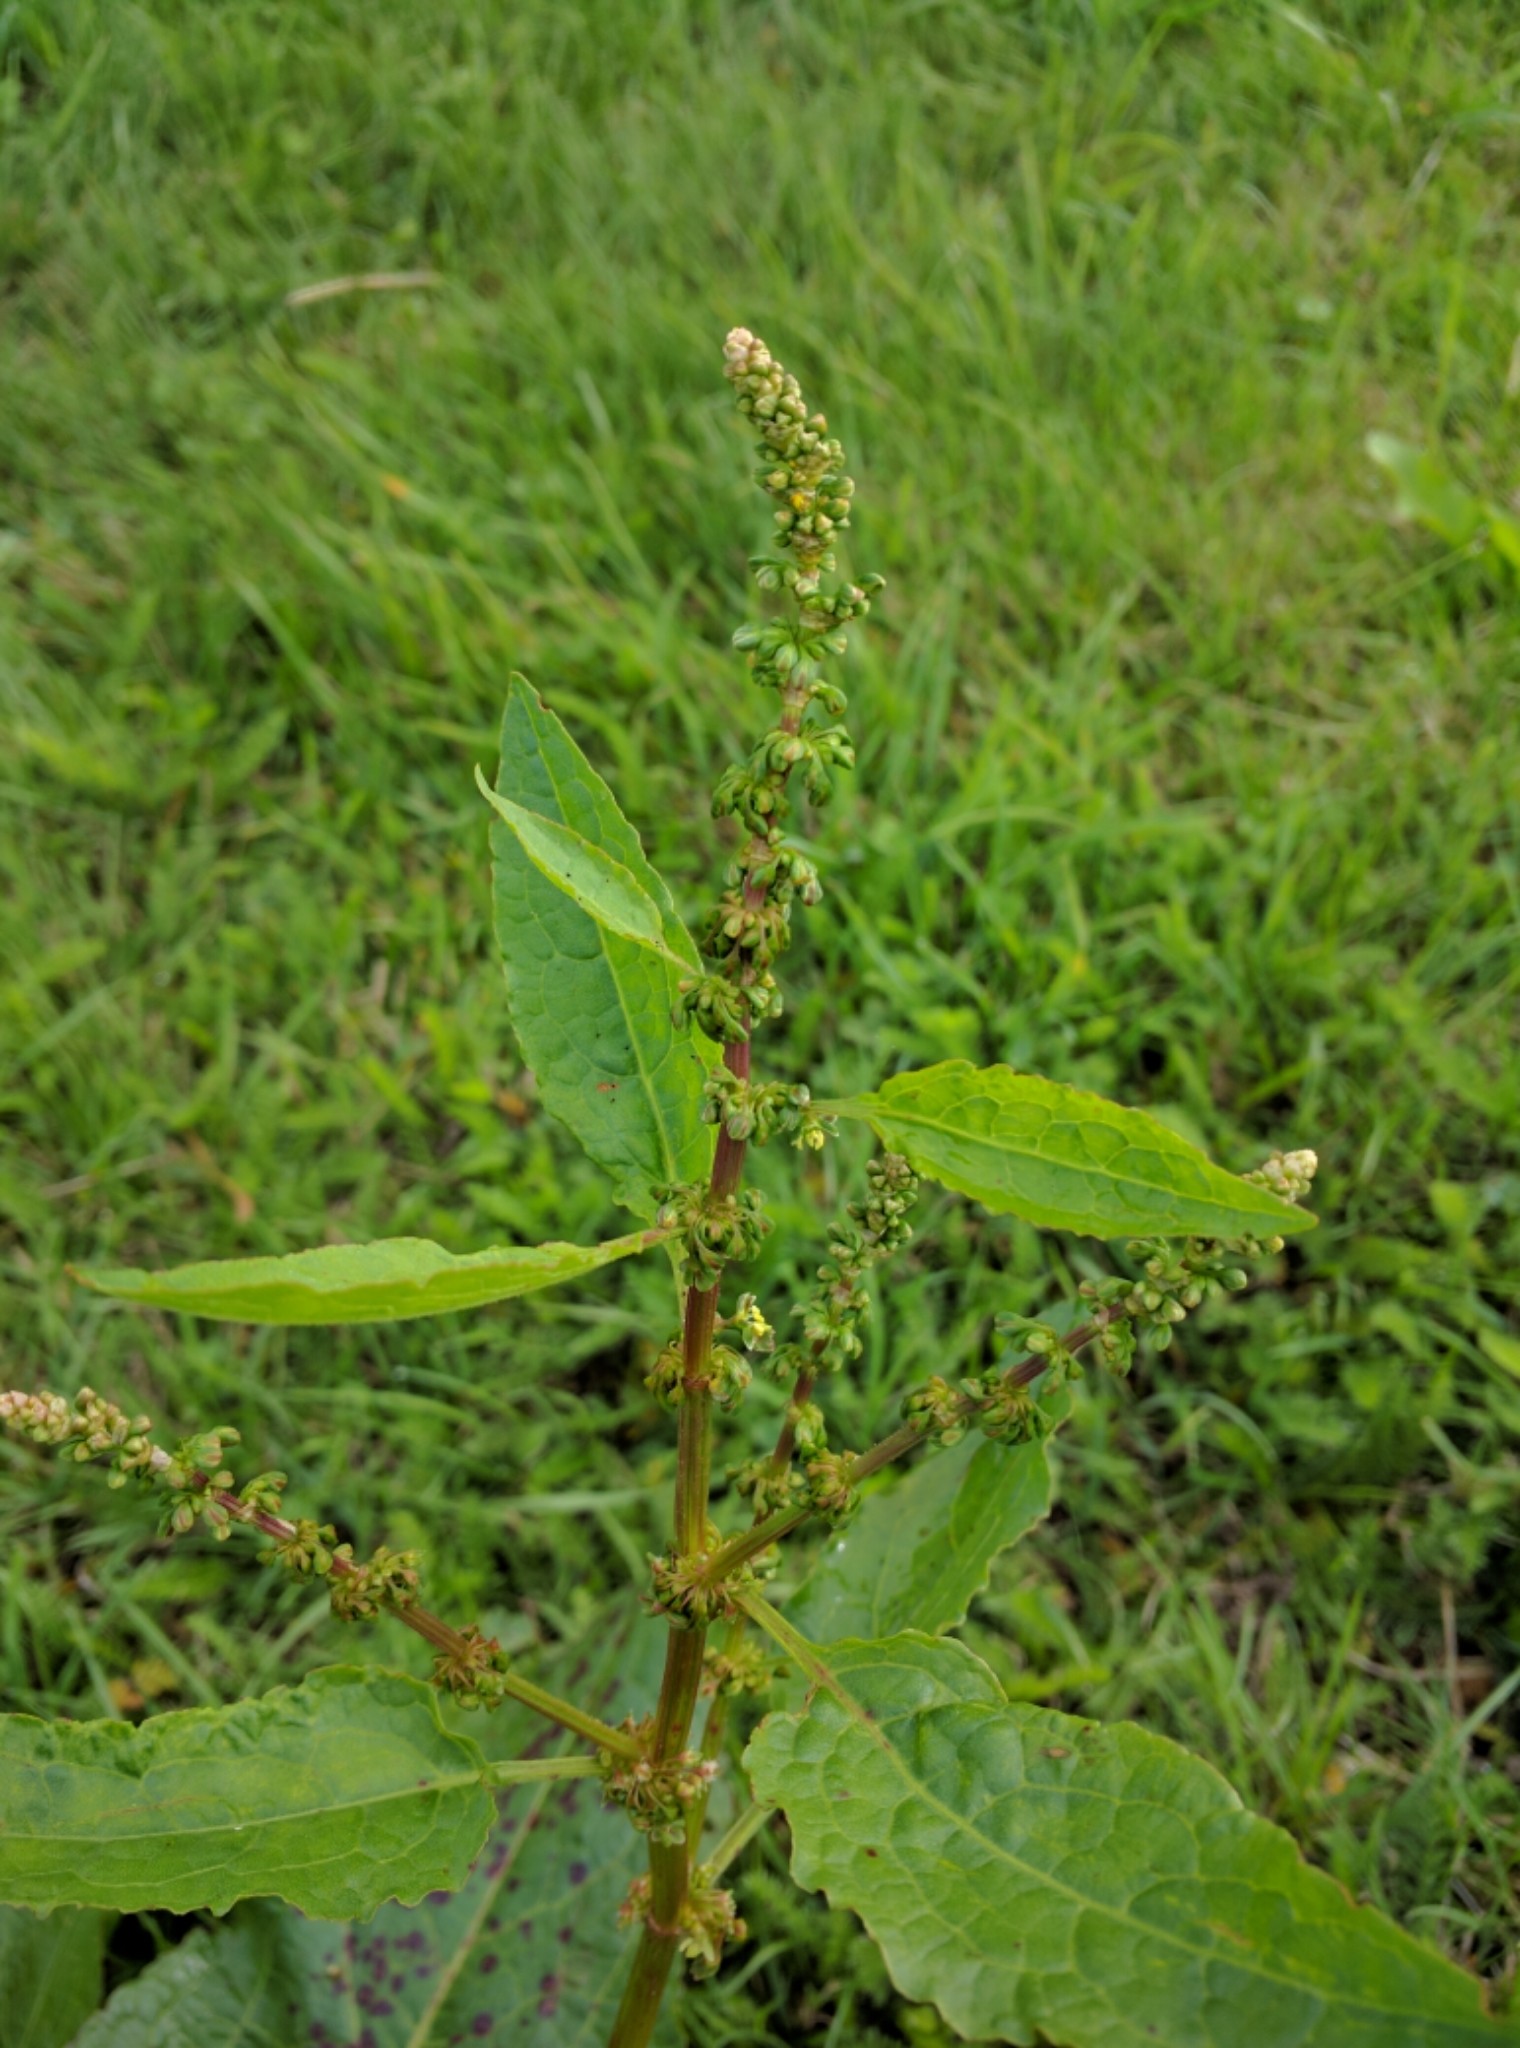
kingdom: Plantae
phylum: Tracheophyta
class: Magnoliopsida
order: Caryophyllales
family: Polygonaceae
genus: Rumex
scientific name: Rumex obtusifolius
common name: Bitter dock
